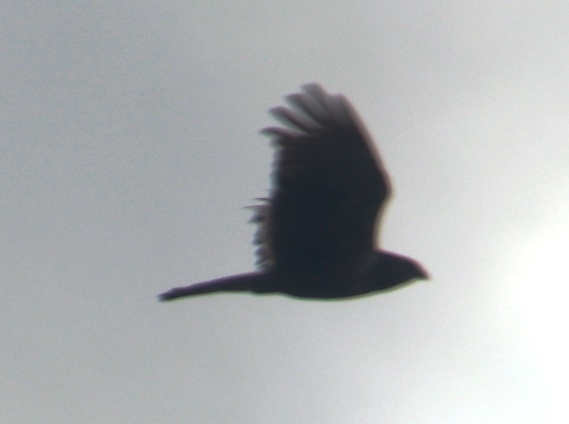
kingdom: Animalia
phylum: Chordata
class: Aves
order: Accipitriformes
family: Accipitridae
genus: Circus
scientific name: Circus ranivorus
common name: African marsh-harrier
